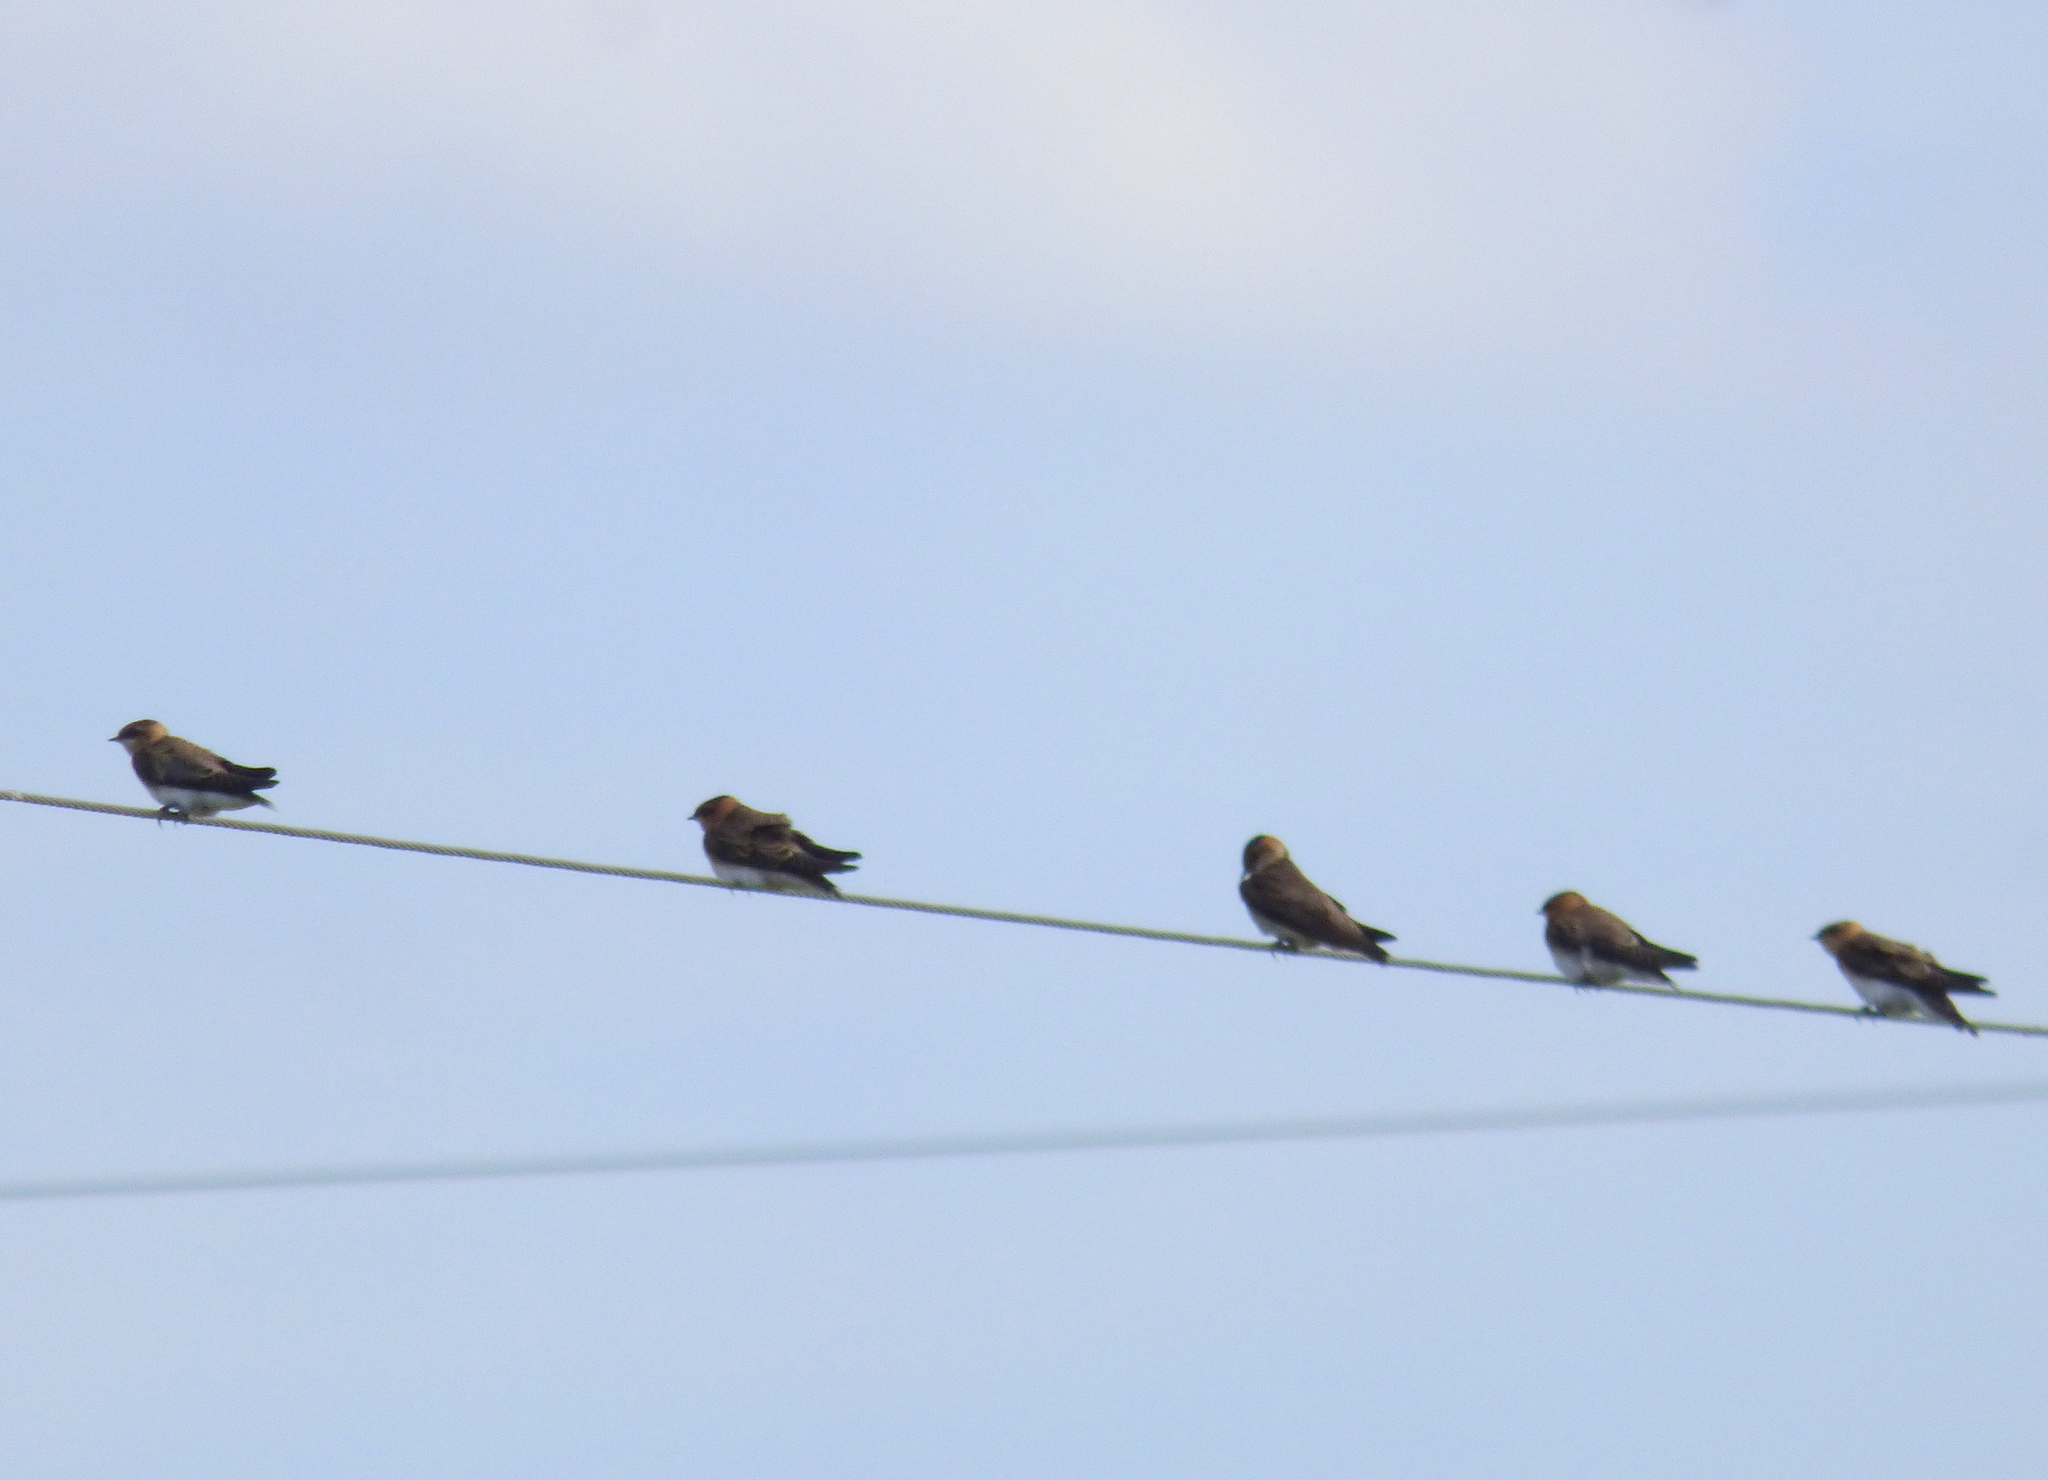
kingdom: Animalia
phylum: Chordata
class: Aves
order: Passeriformes
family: Hirundinidae
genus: Alopochelidon
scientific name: Alopochelidon fucata
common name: Tawny-headed swallow
